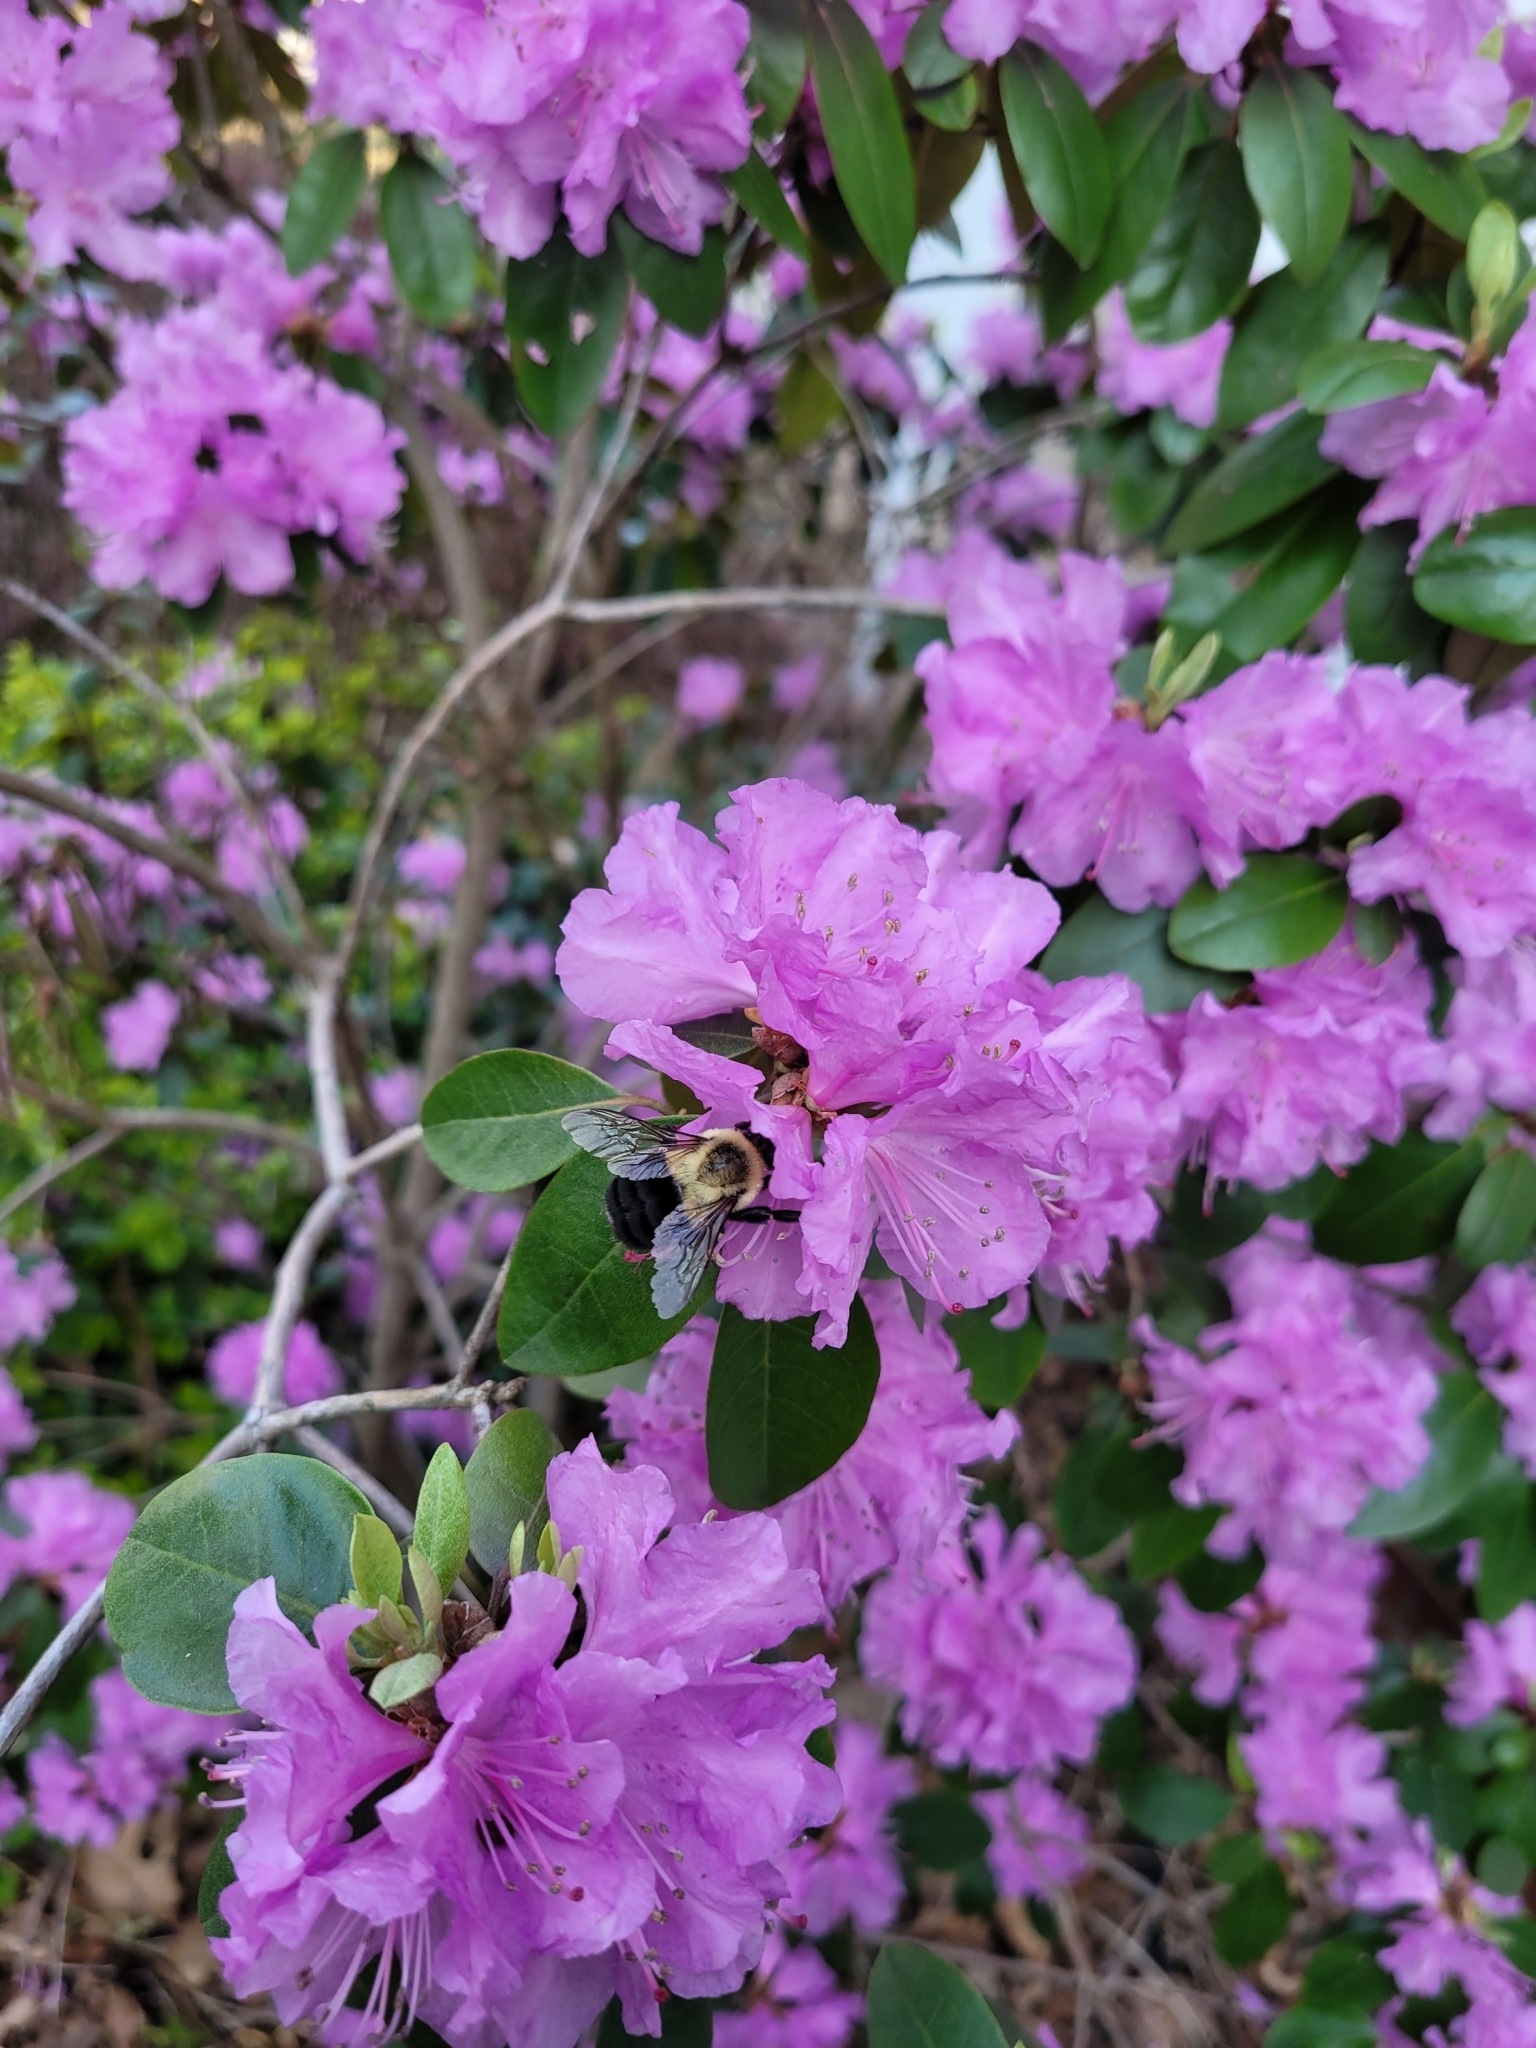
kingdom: Animalia
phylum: Arthropoda
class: Insecta
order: Hymenoptera
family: Apidae
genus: Bombus
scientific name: Bombus impatiens
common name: Common eastern bumble bee
